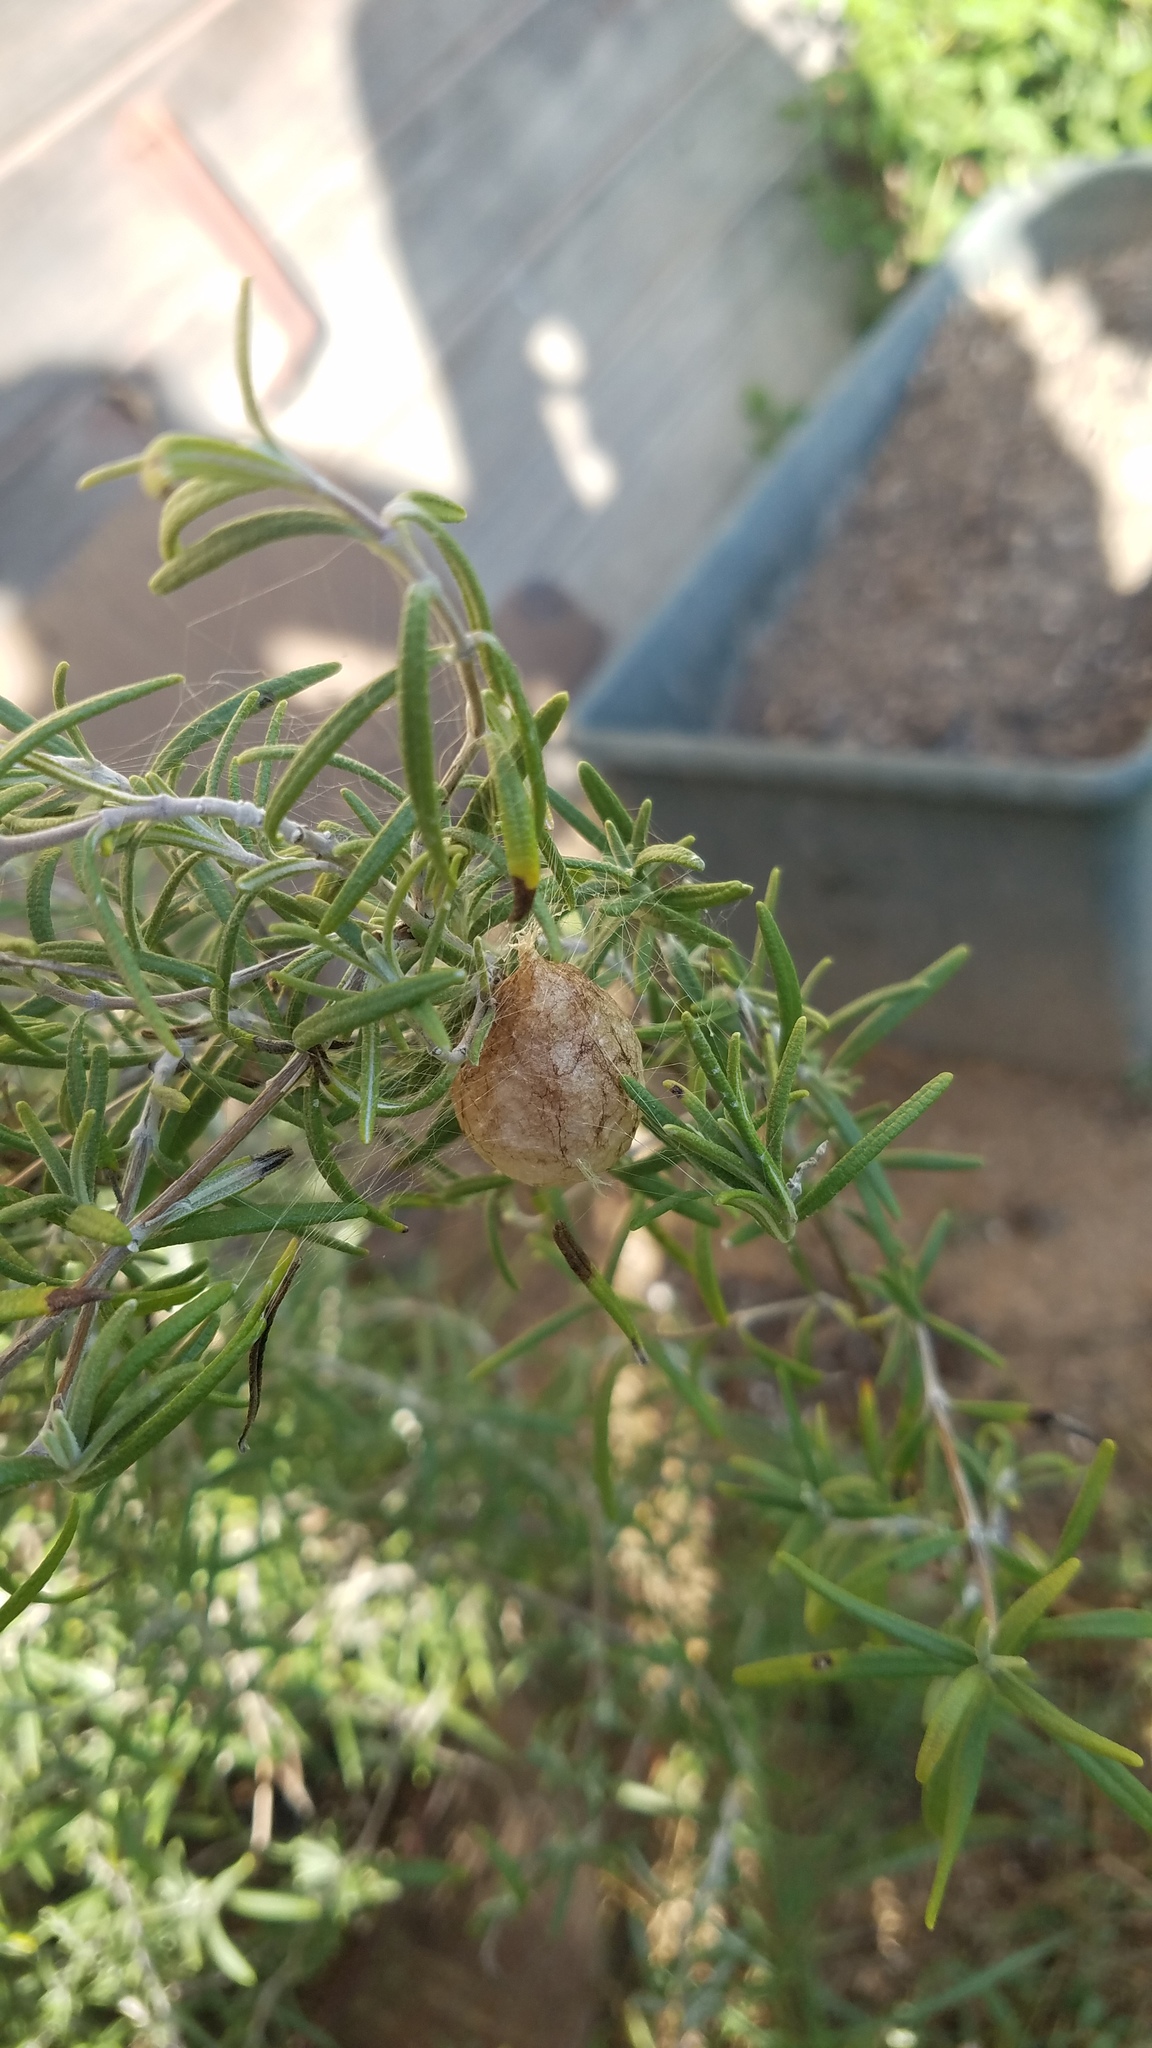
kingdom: Animalia
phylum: Arthropoda
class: Arachnida
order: Araneae
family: Araneidae
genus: Argiope
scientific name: Argiope aurantia
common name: Orb weavers
